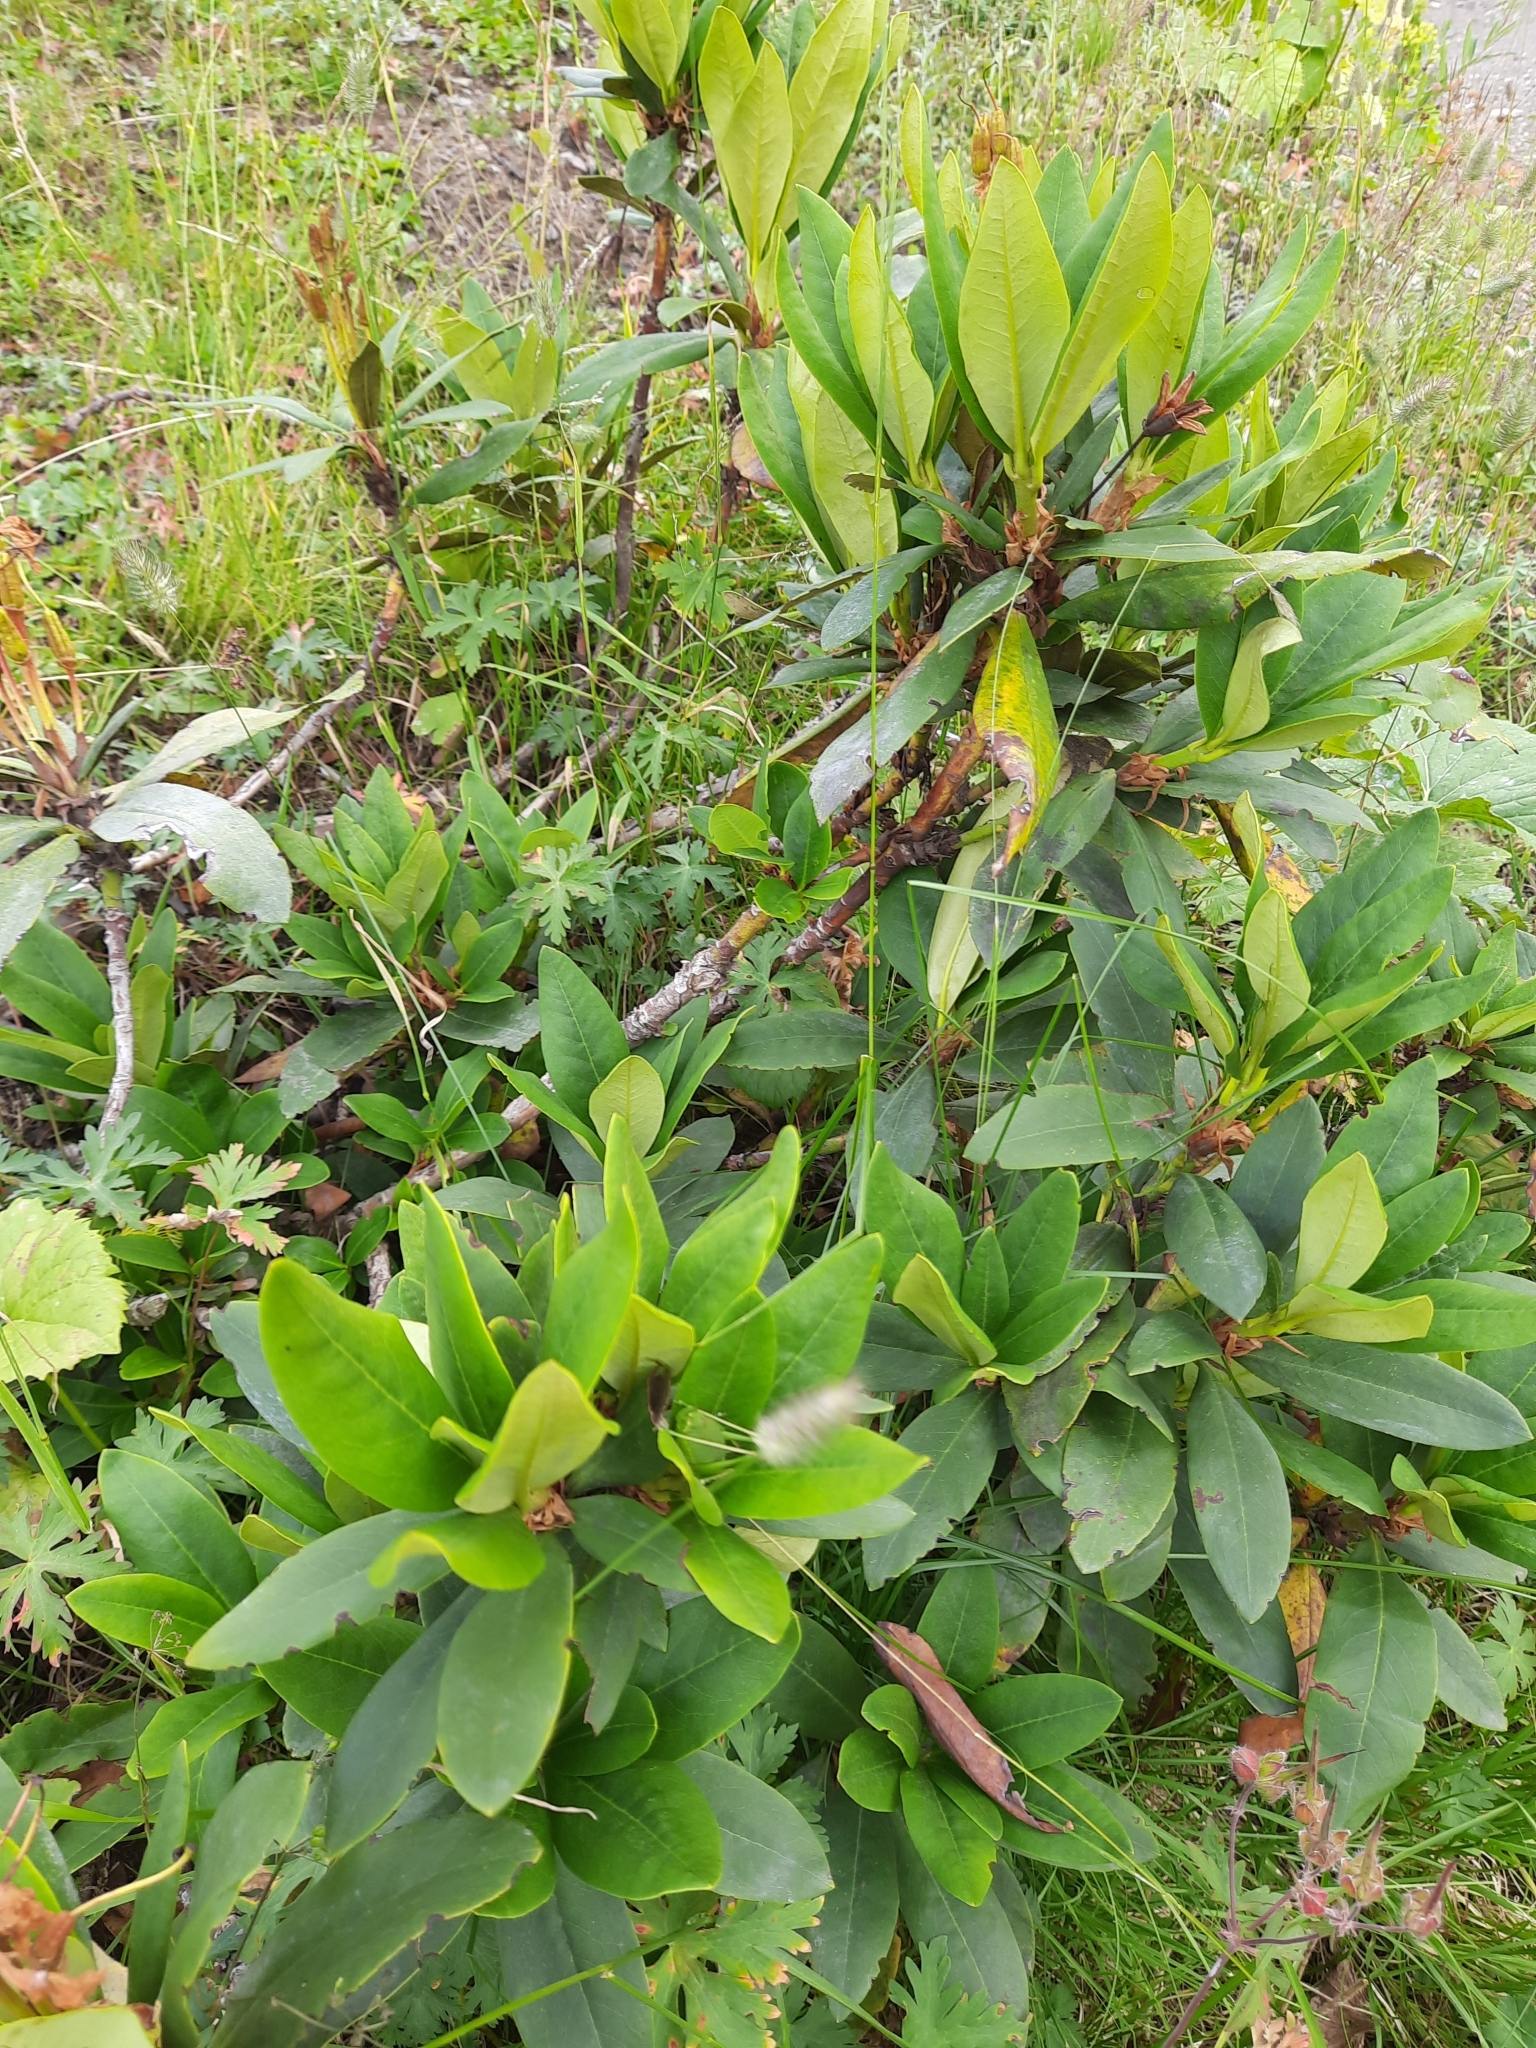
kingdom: Plantae
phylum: Tracheophyta
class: Magnoliopsida
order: Ericales
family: Ericaceae
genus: Rhododendron
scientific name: Rhododendron caucasicum
